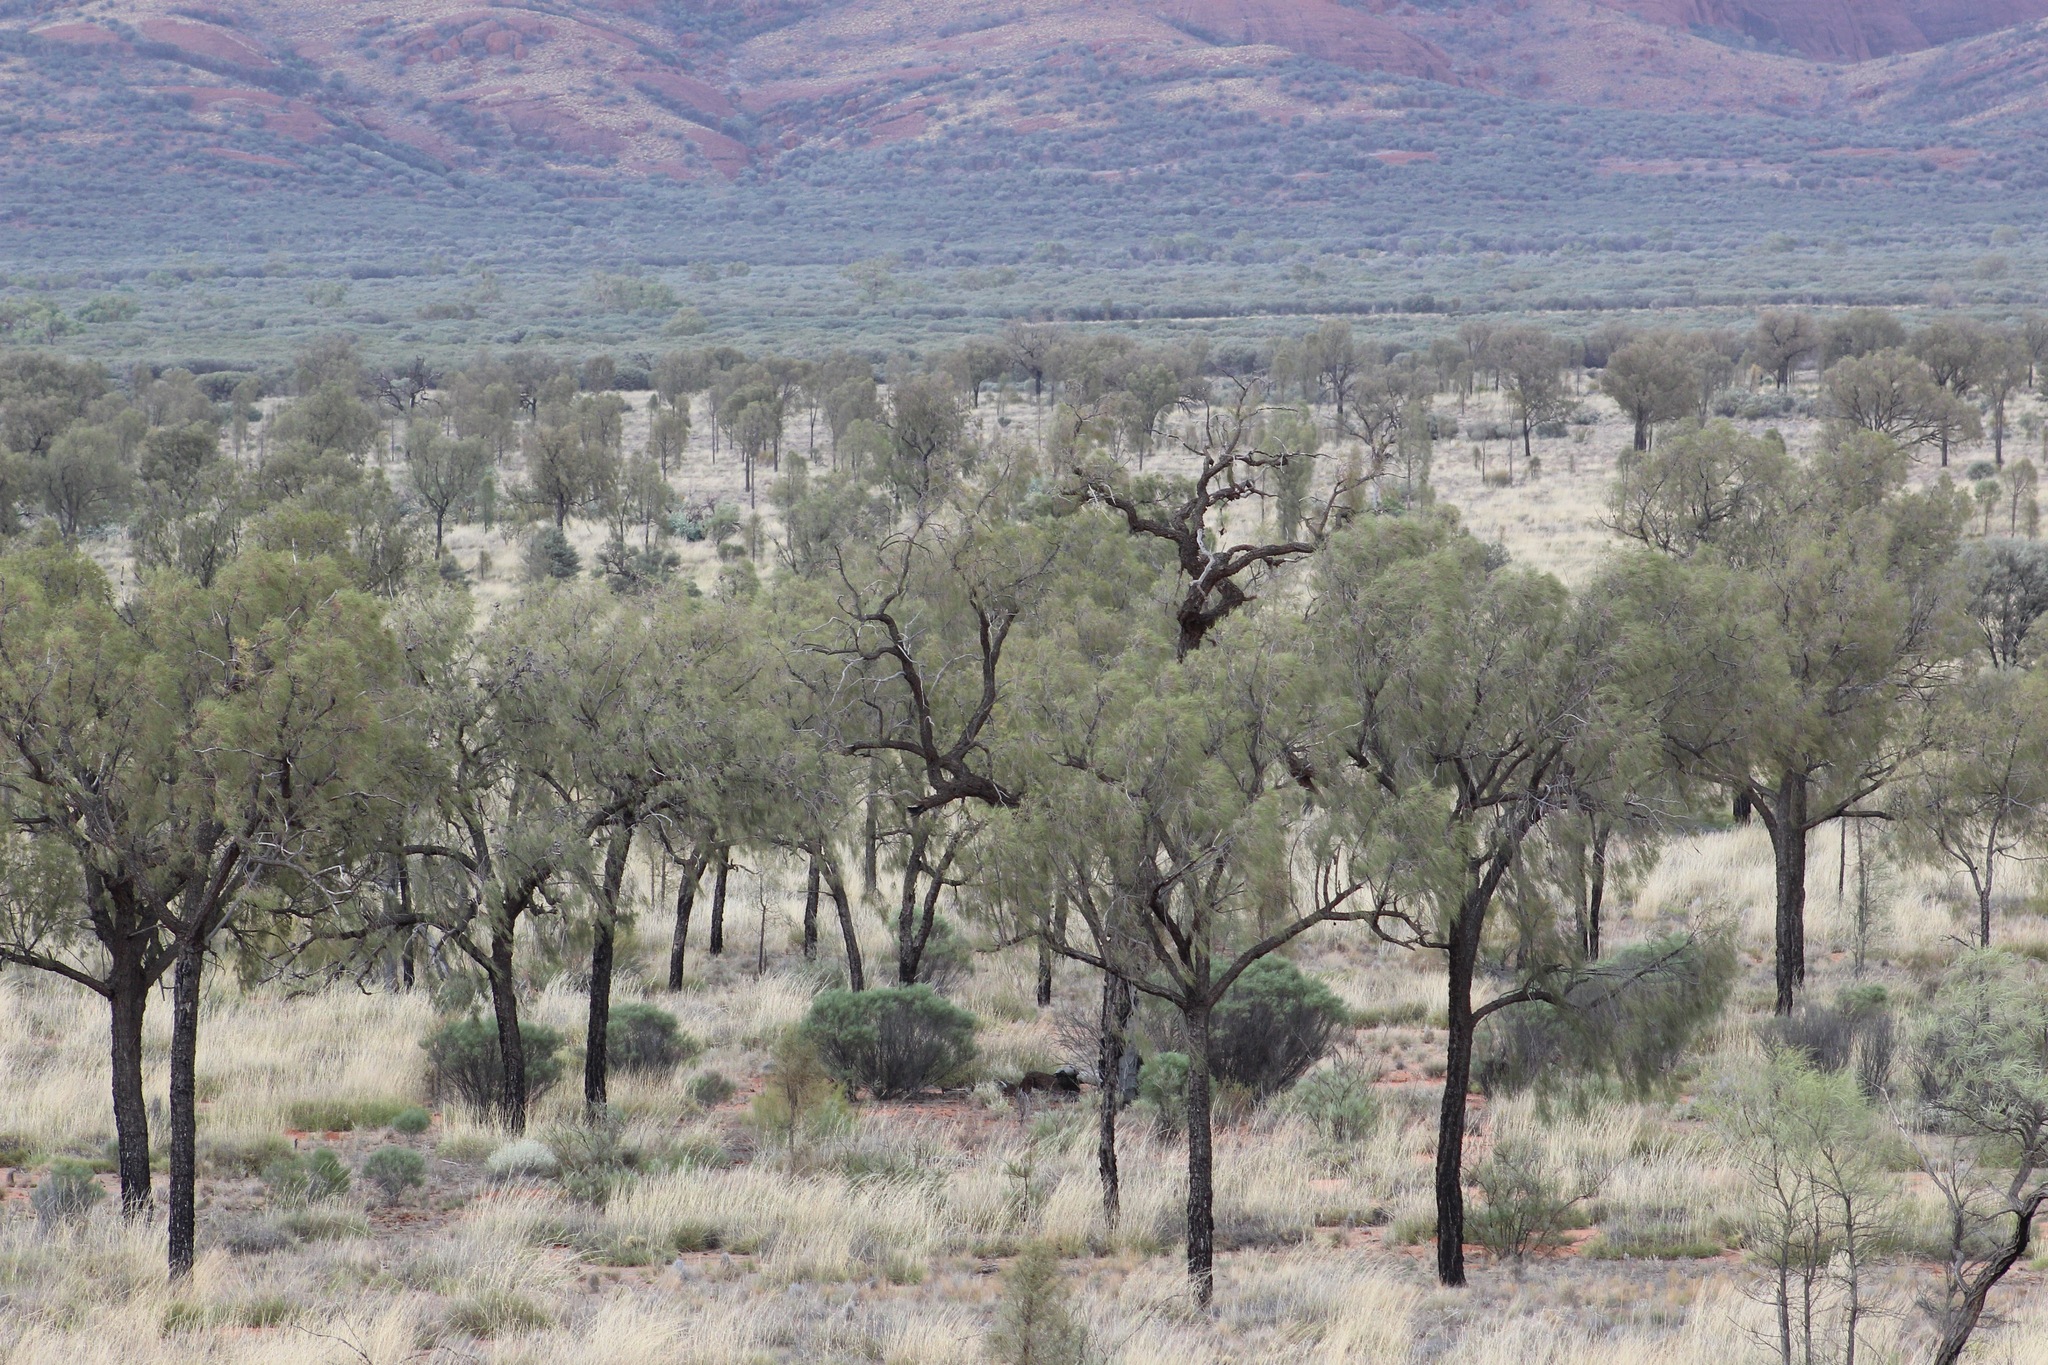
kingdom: Plantae
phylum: Tracheophyta
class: Magnoliopsida
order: Fagales
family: Casuarinaceae
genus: Allocasuarina
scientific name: Allocasuarina decaisneana
